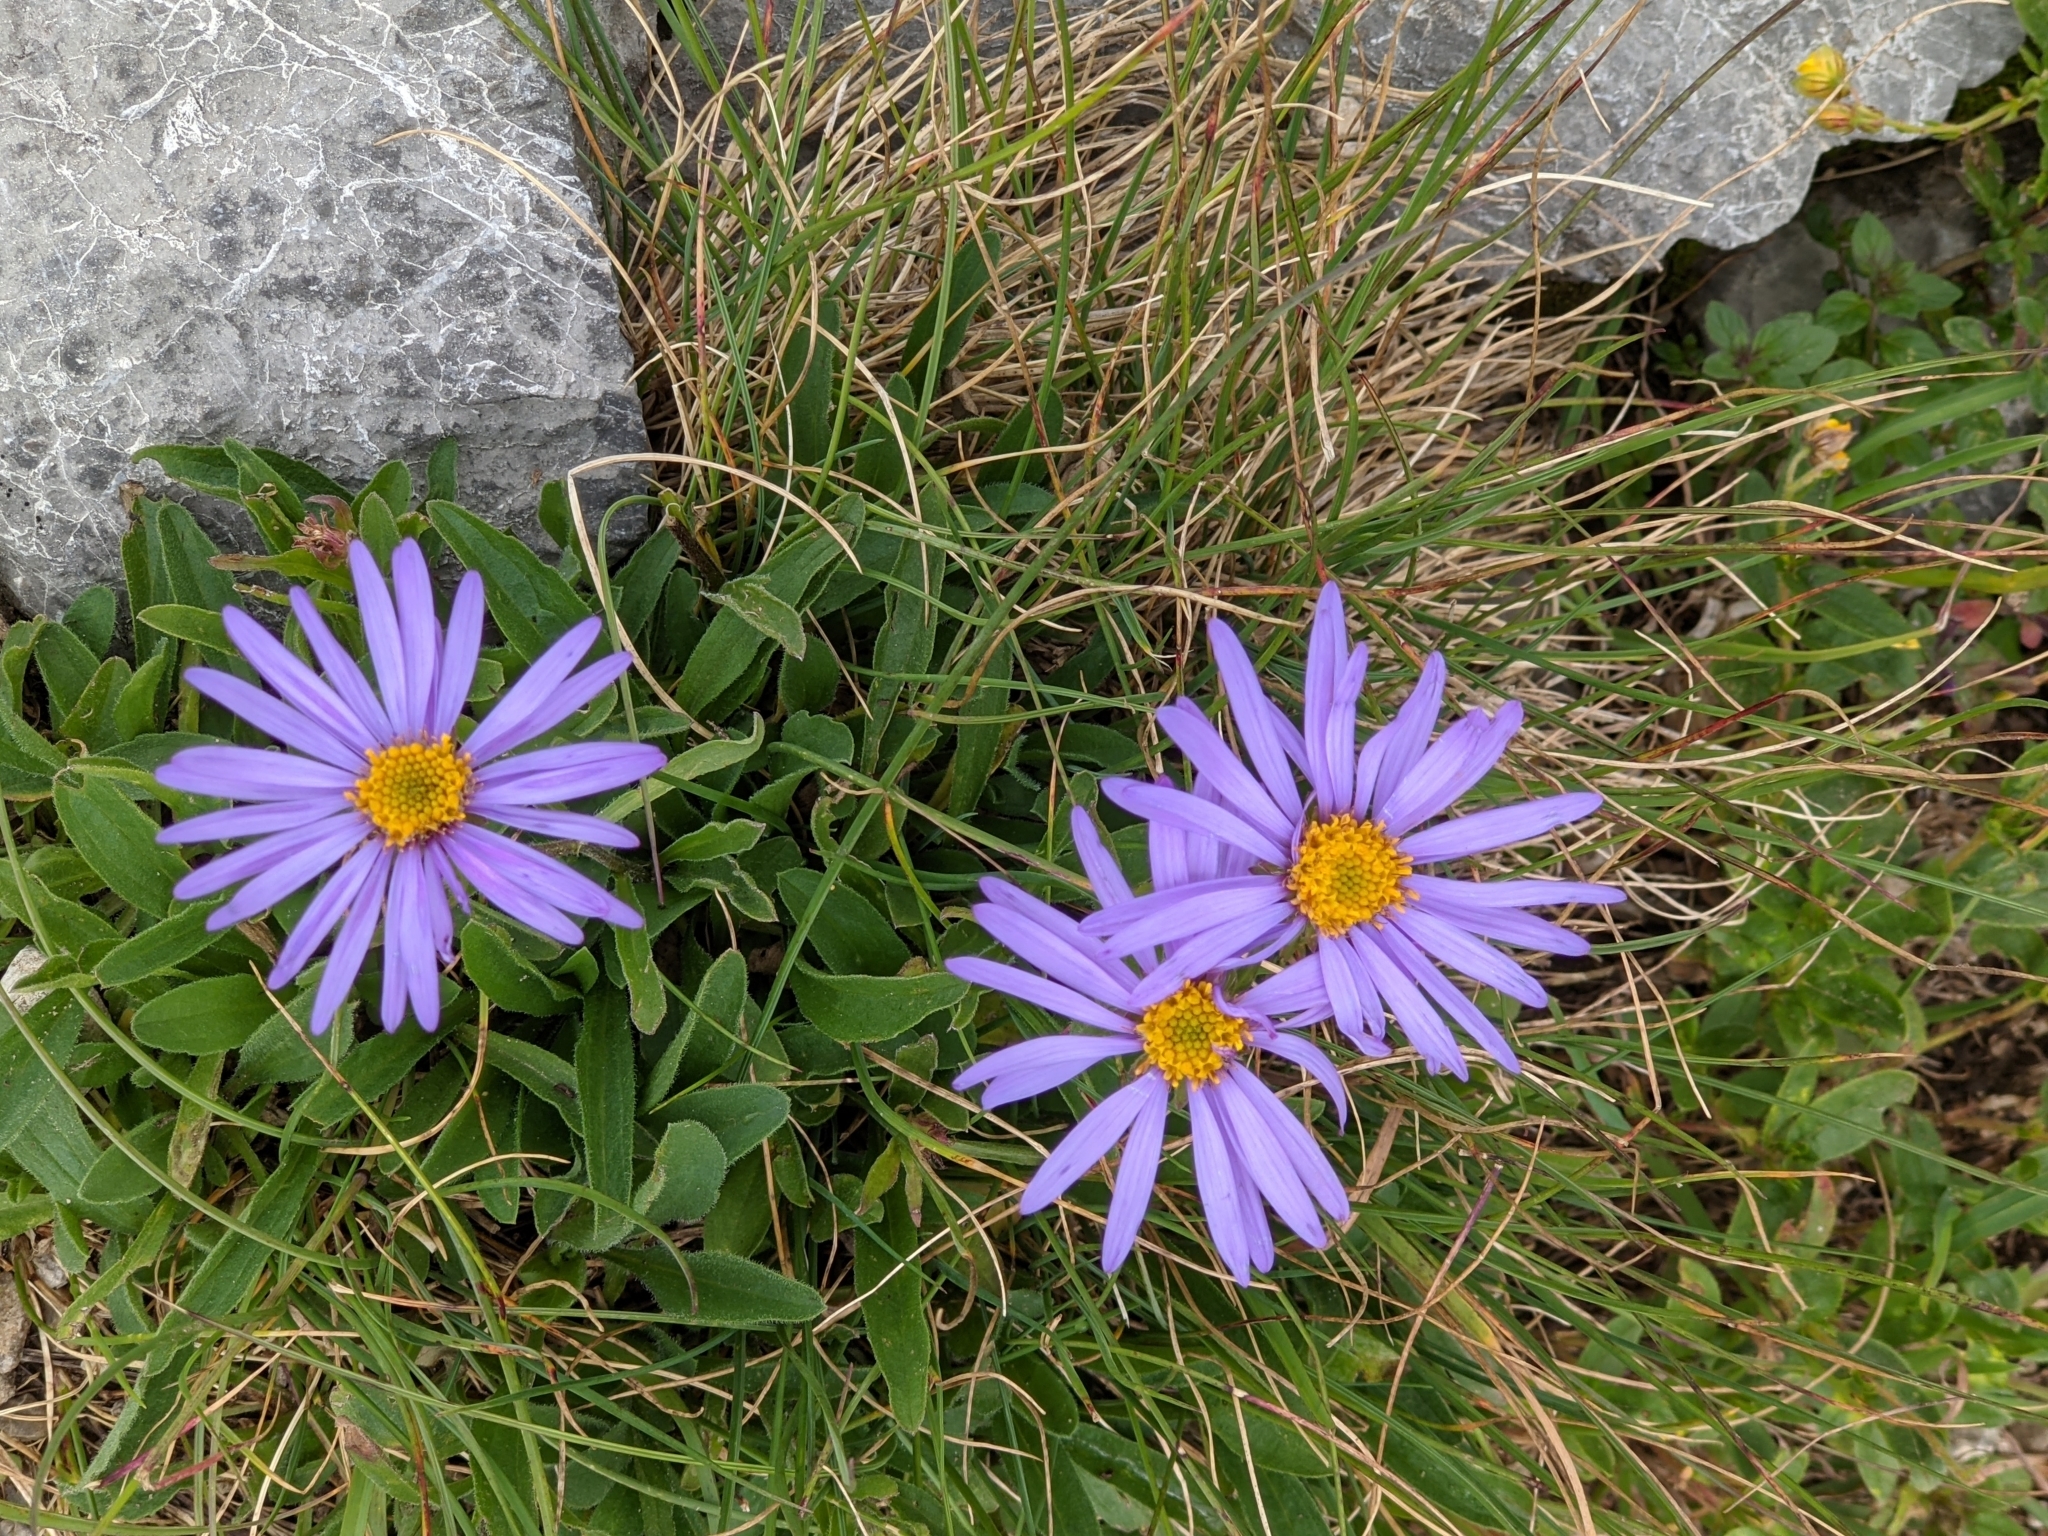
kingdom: Plantae
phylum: Tracheophyta
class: Magnoliopsida
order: Asterales
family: Asteraceae
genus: Aster
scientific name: Aster alpinus
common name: Alpine aster
